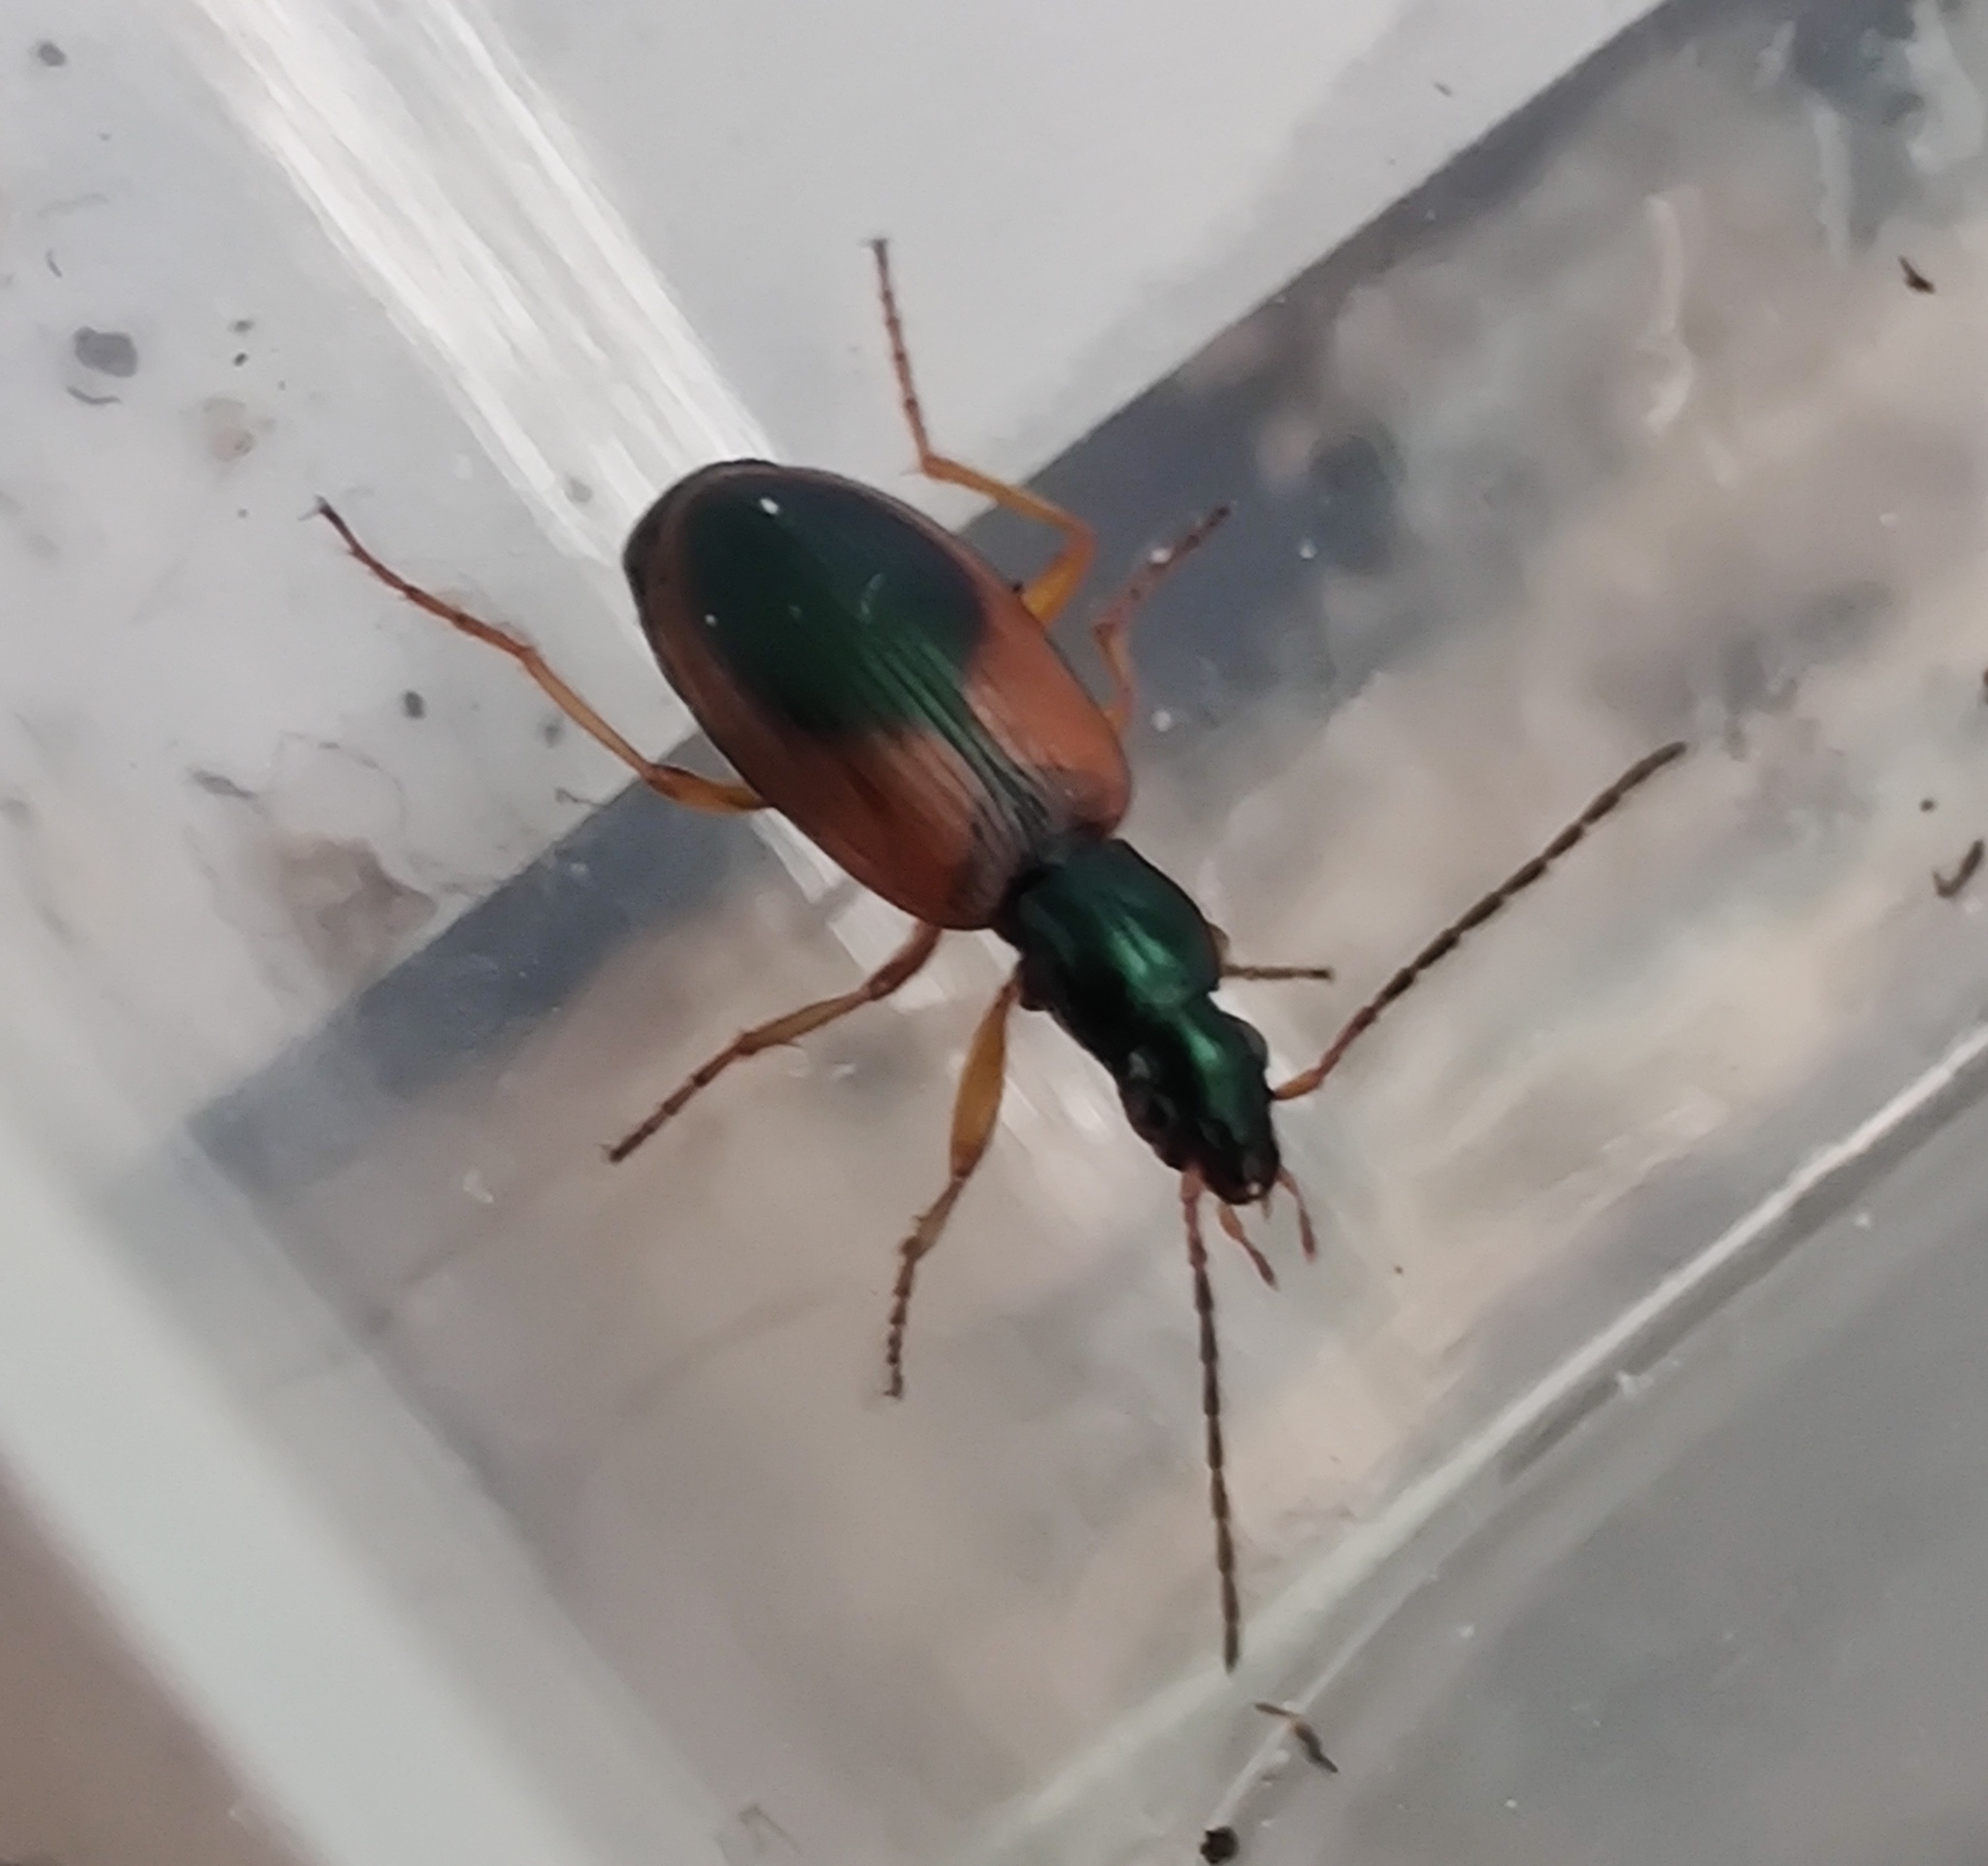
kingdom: Animalia
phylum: Arthropoda
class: Insecta
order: Coleoptera
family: Carabidae
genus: Anchomenus
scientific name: Anchomenus dorsalis
